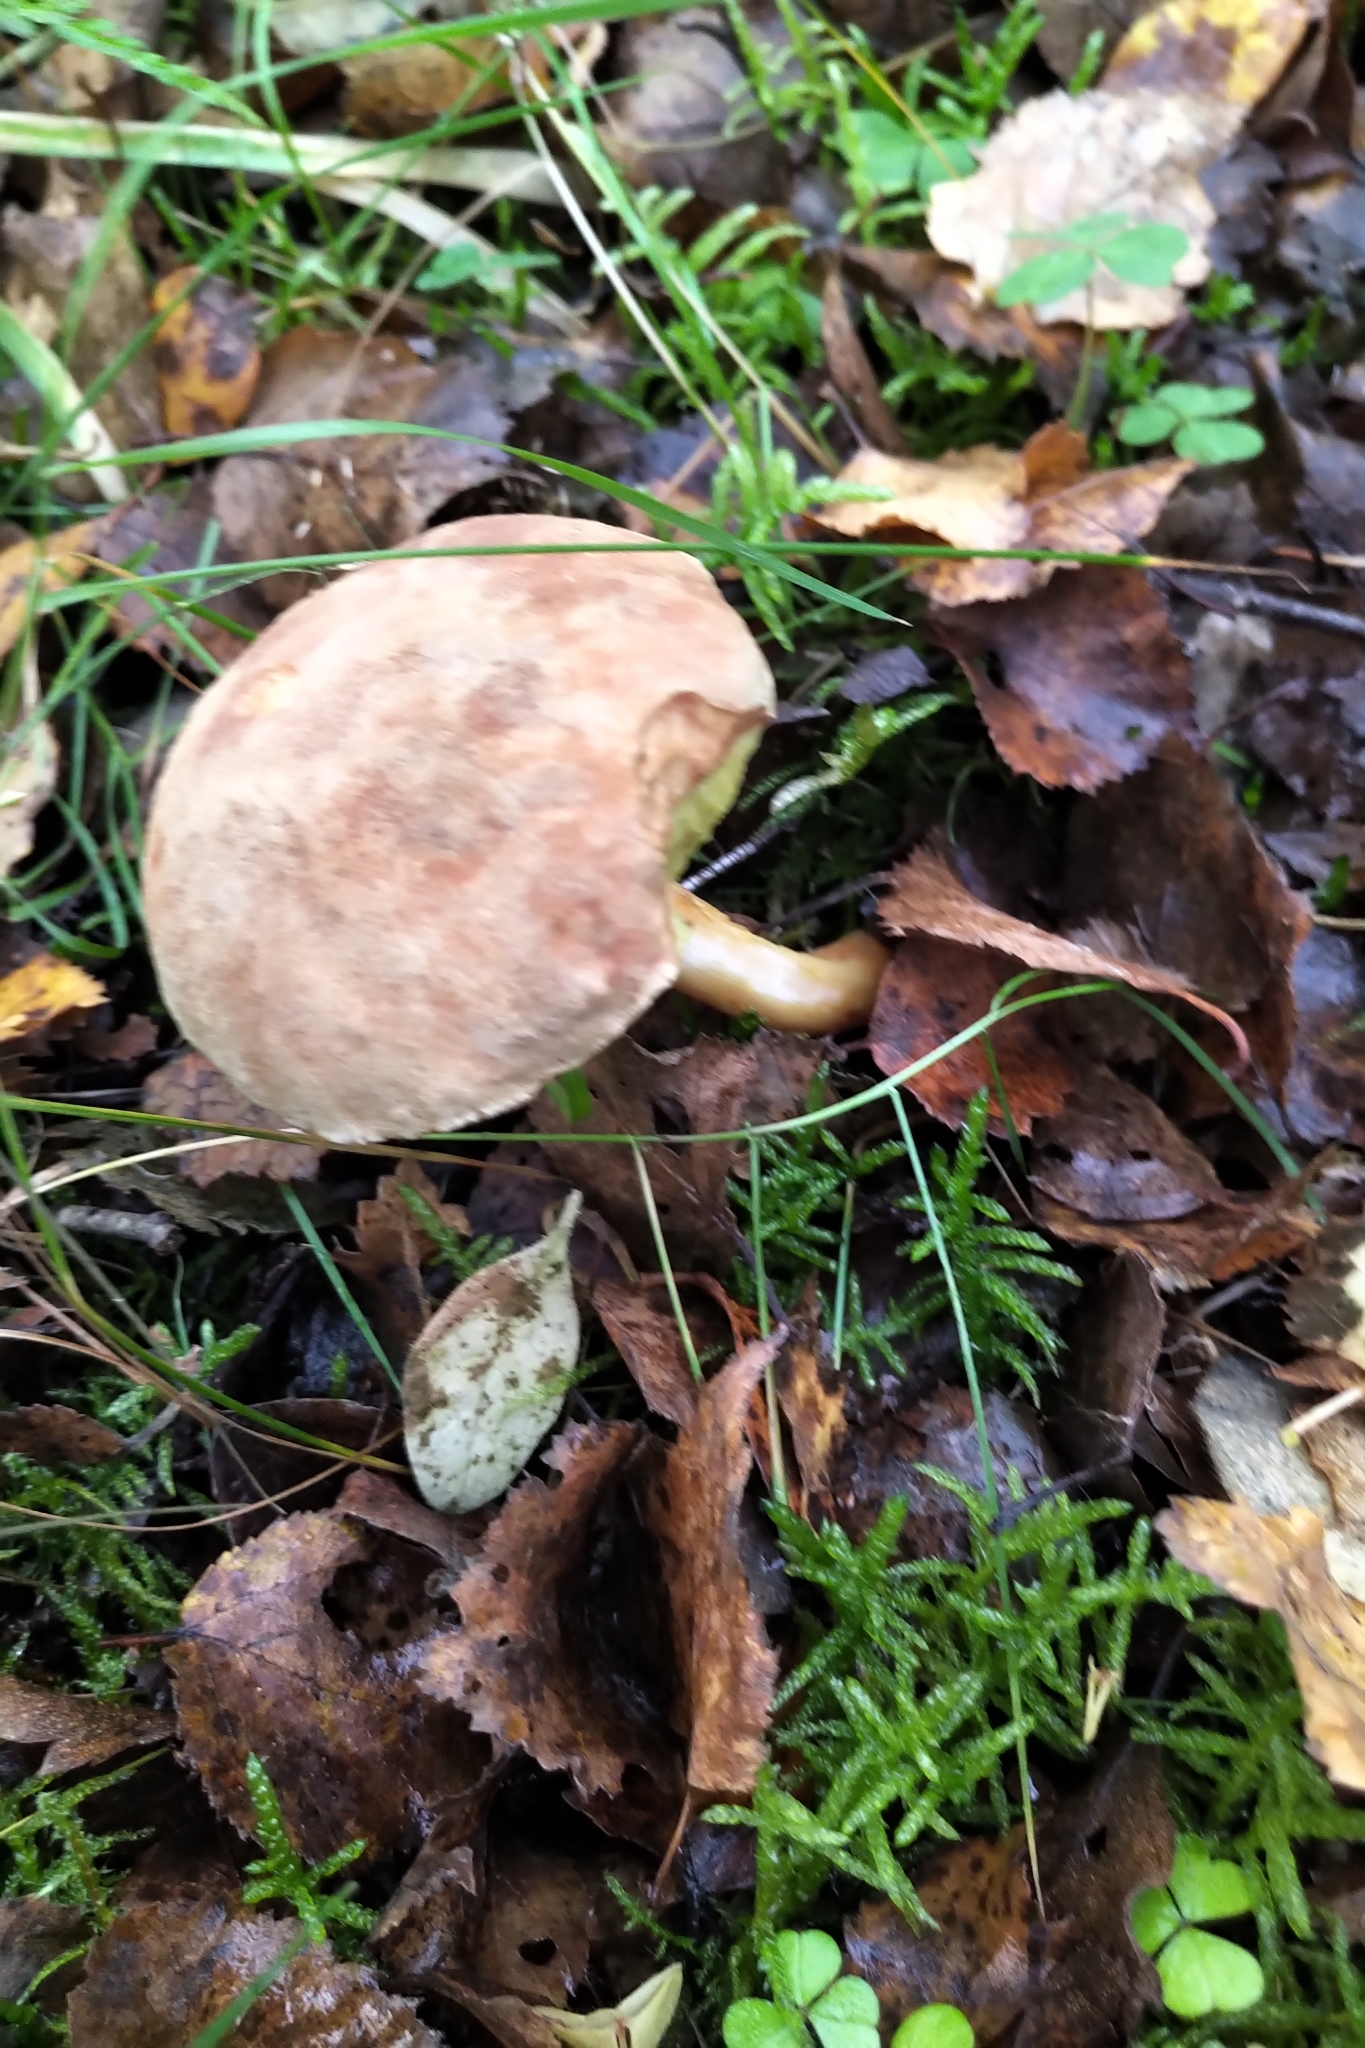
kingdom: Fungi
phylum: Basidiomycota
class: Agaricomycetes
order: Boletales
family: Boletaceae
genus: Xerocomus
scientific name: Xerocomus subtomentosus
